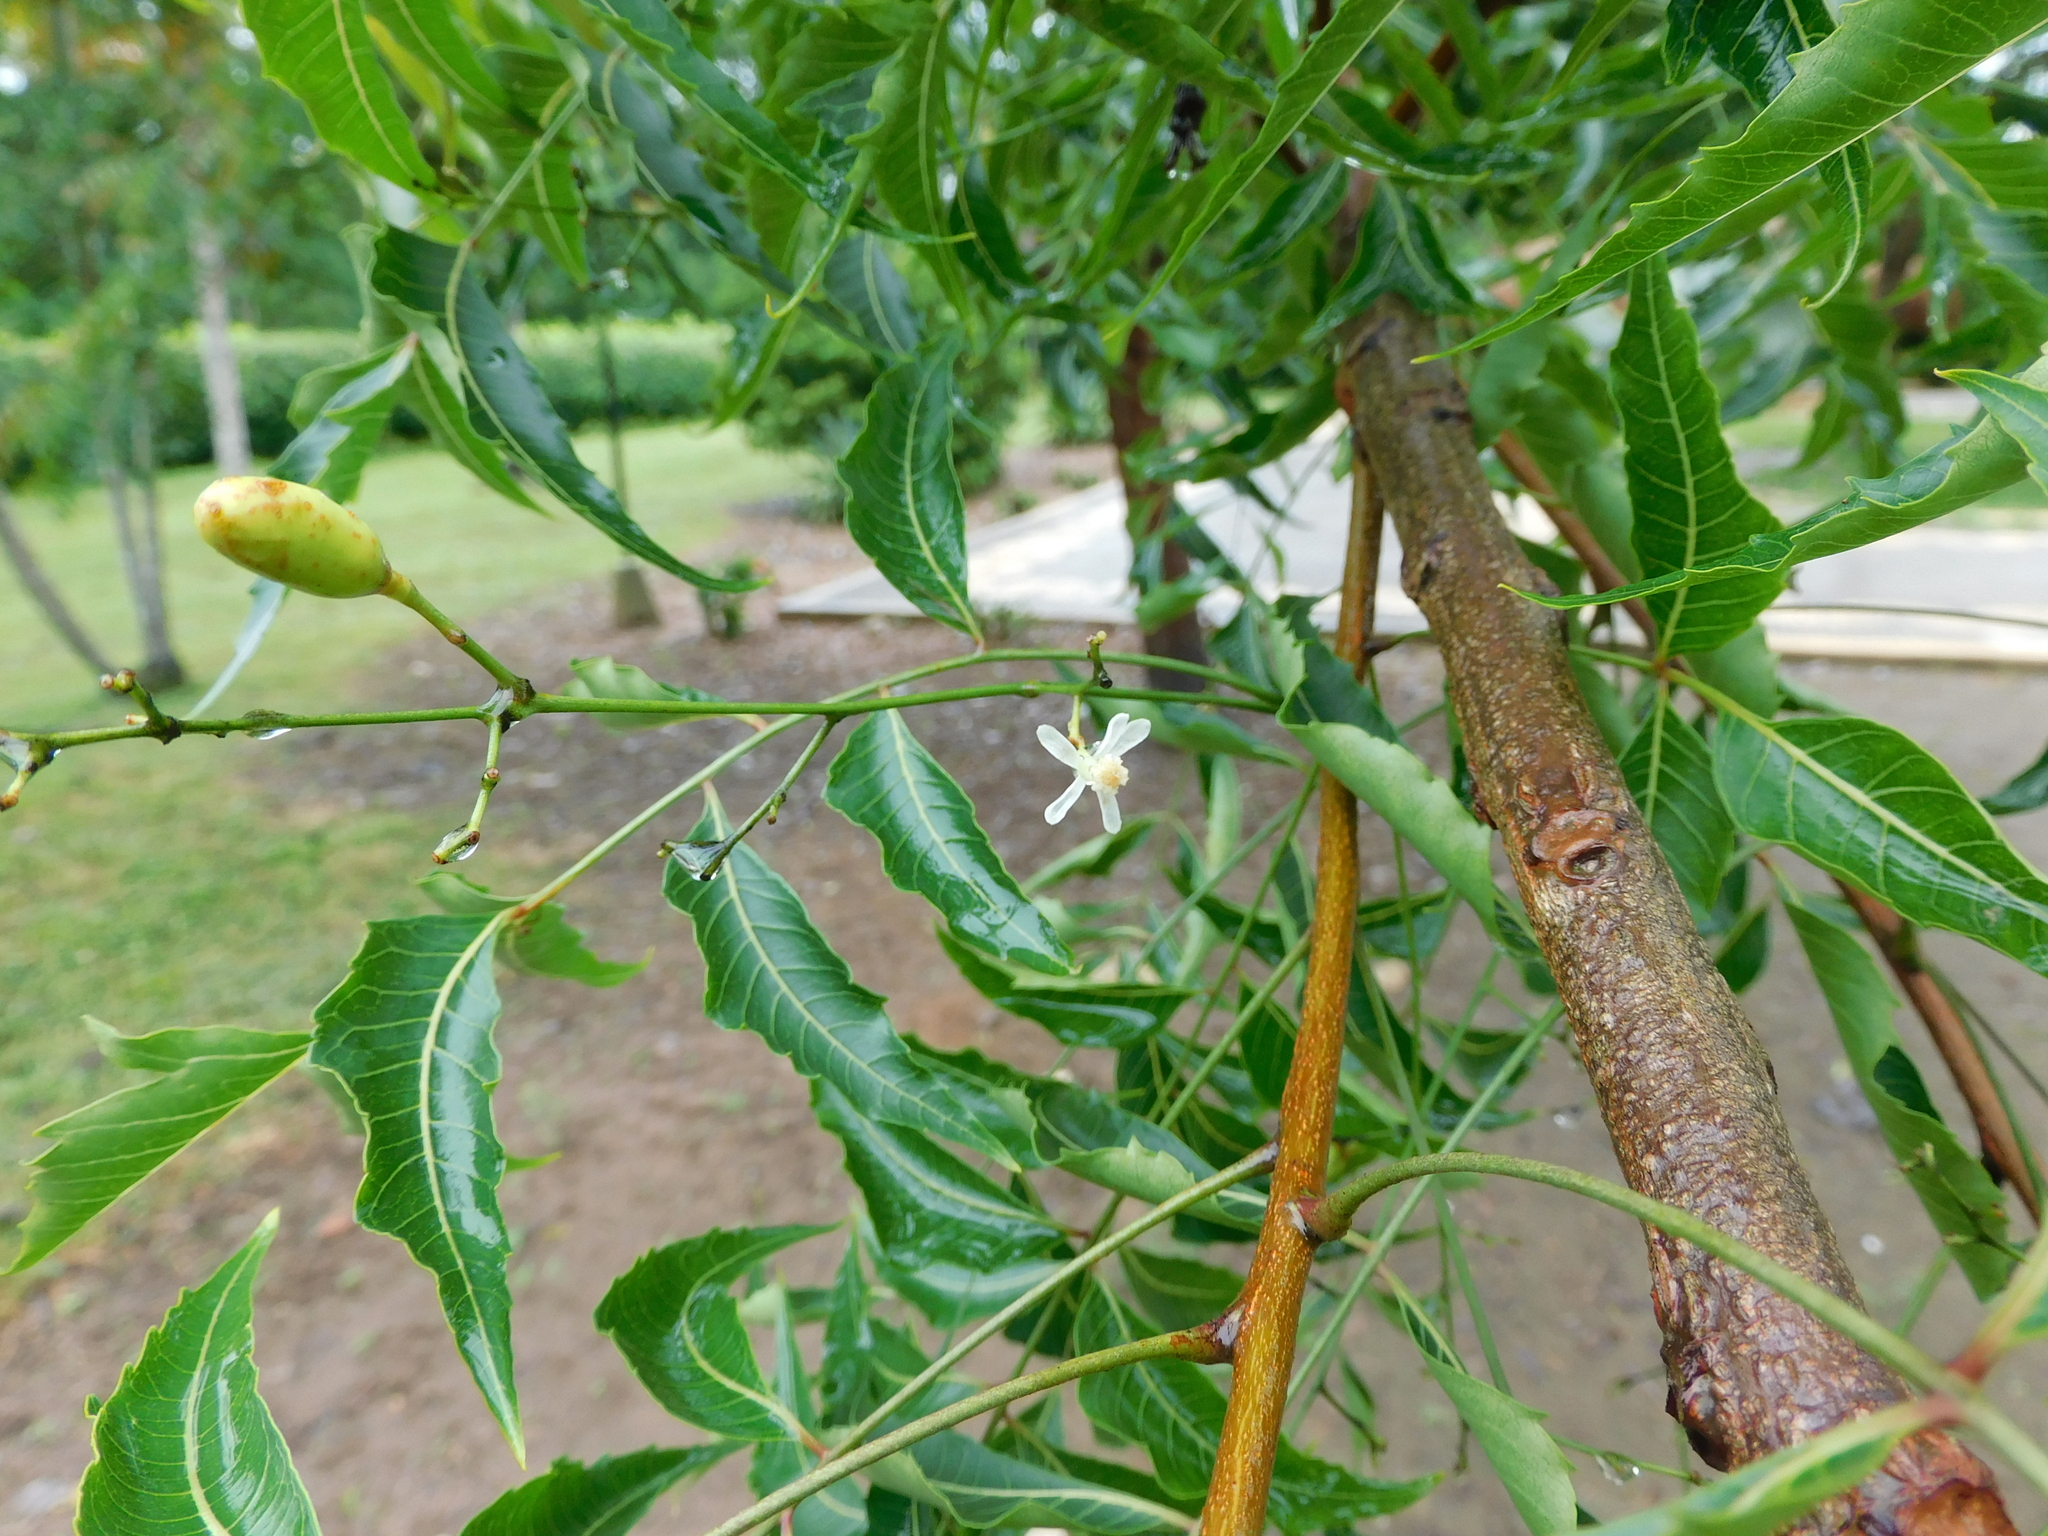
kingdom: Plantae
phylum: Tracheophyta
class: Magnoliopsida
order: Sapindales
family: Meliaceae
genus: Azadirachta
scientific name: Azadirachta indica
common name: Neem
